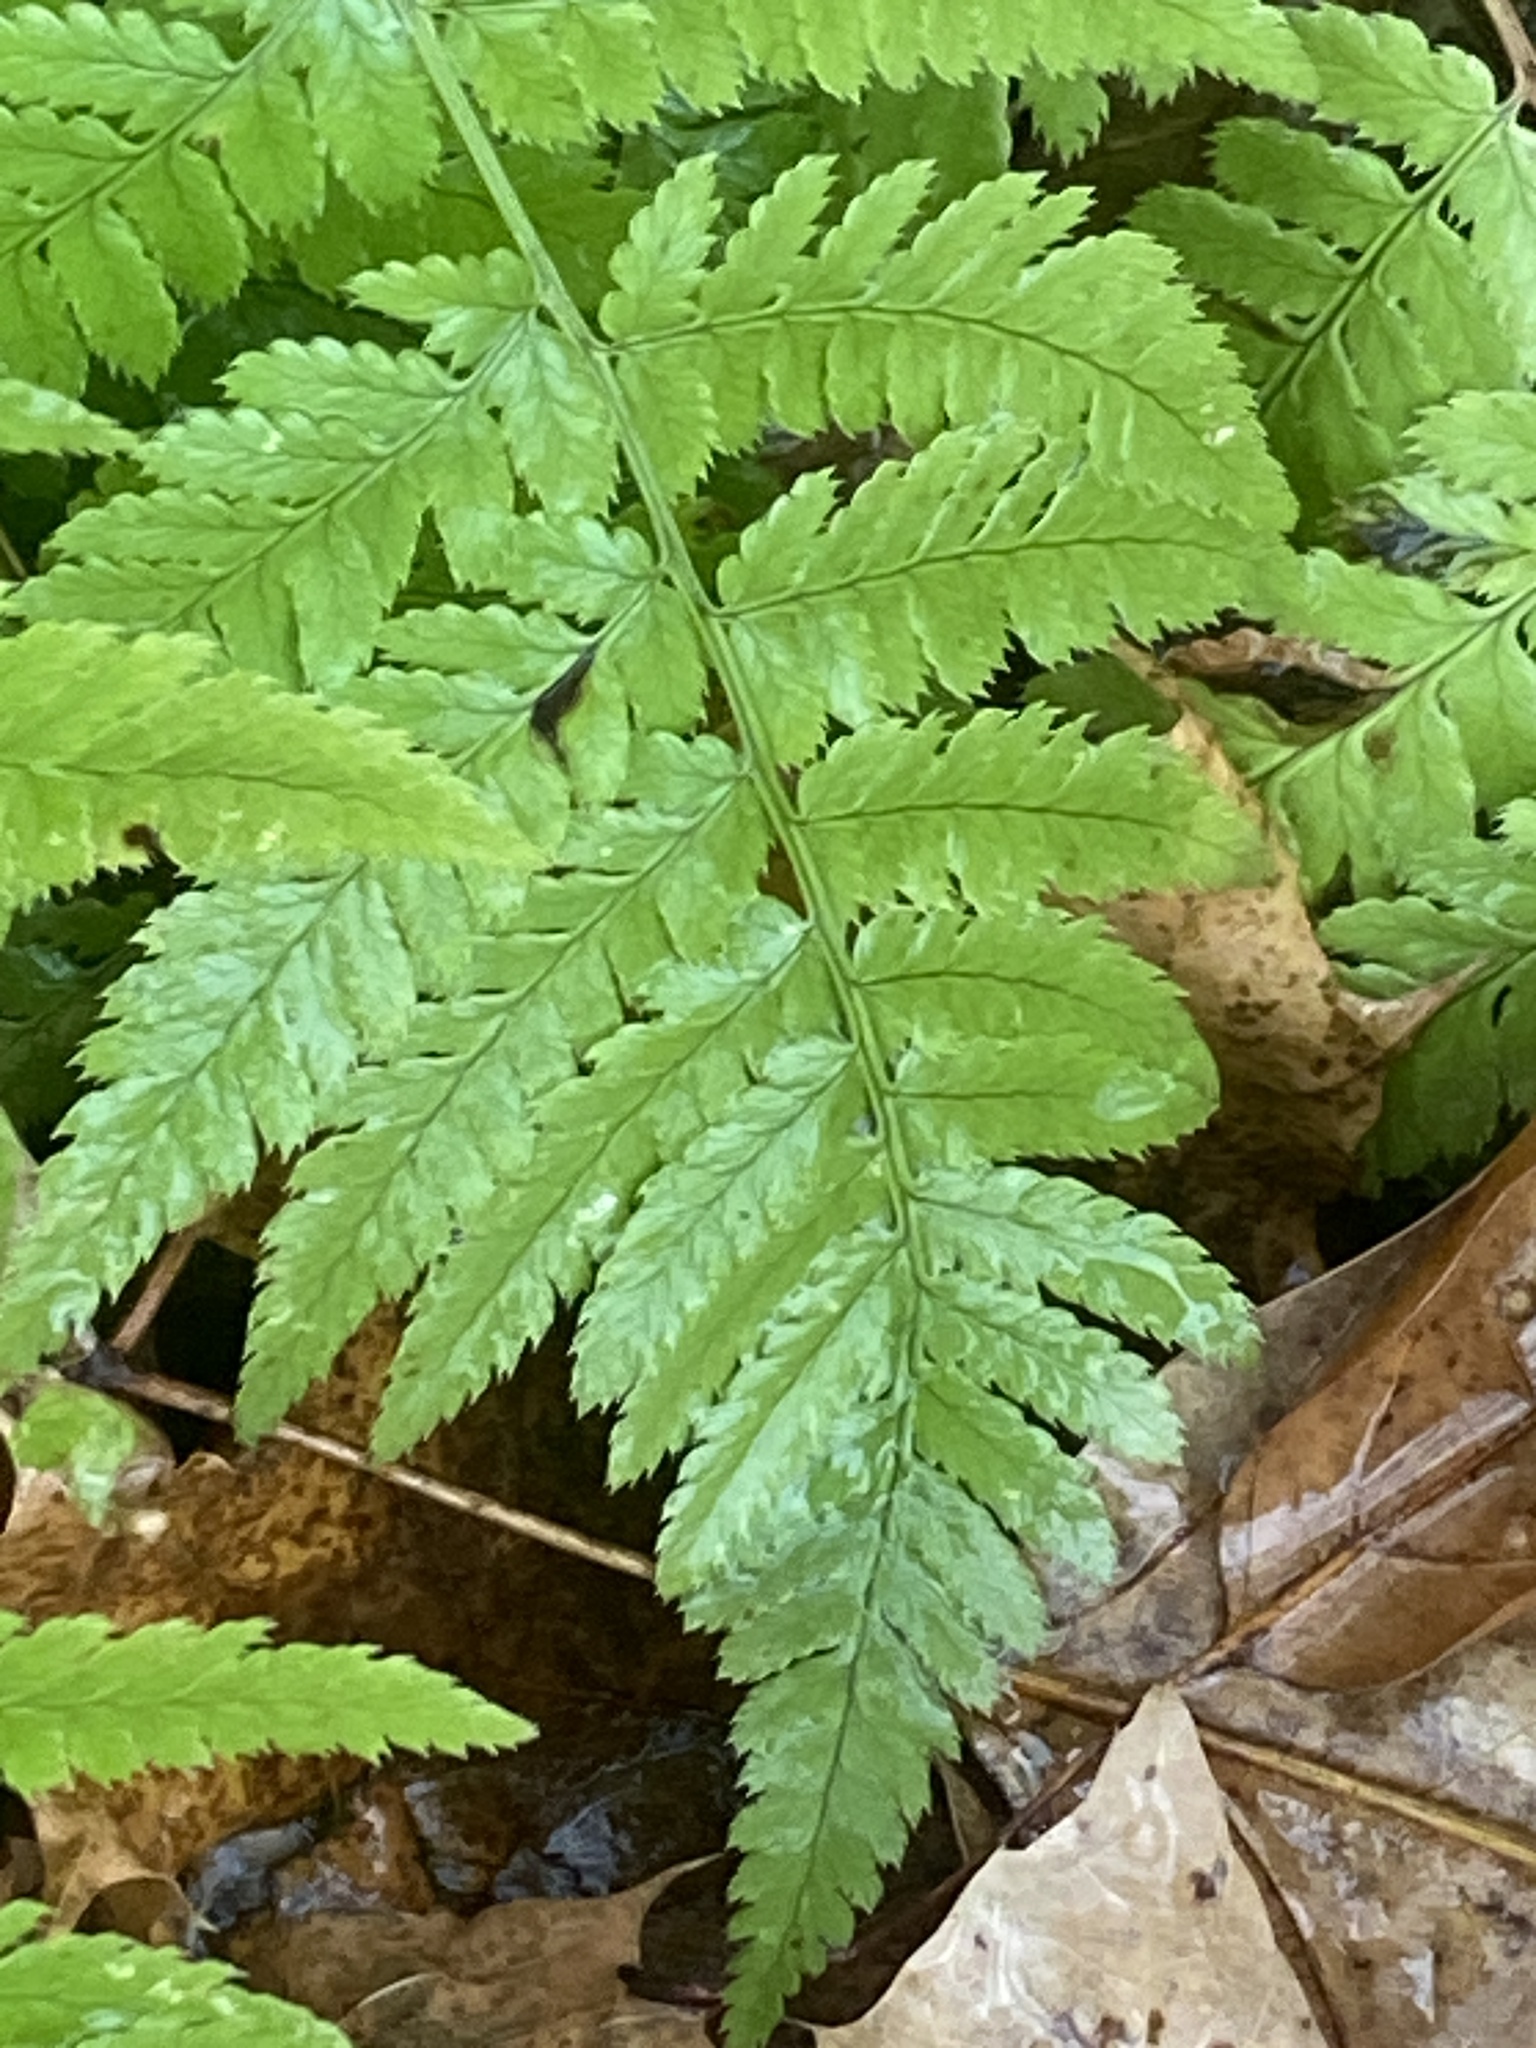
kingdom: Plantae
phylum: Tracheophyta
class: Polypodiopsida
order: Polypodiales
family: Dryopteridaceae
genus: Dryopteris
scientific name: Dryopteris carthusiana
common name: Narrow buckler-fern
